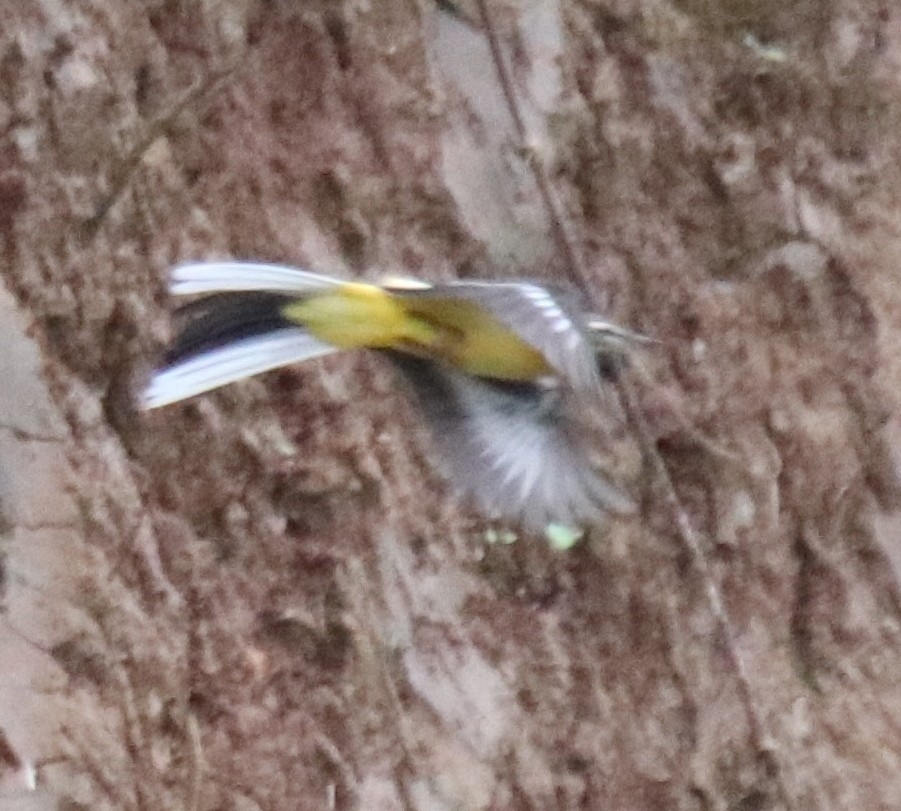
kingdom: Animalia
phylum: Chordata
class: Aves
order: Passeriformes
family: Motacillidae
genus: Motacilla
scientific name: Motacilla cinerea
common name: Grey wagtail
